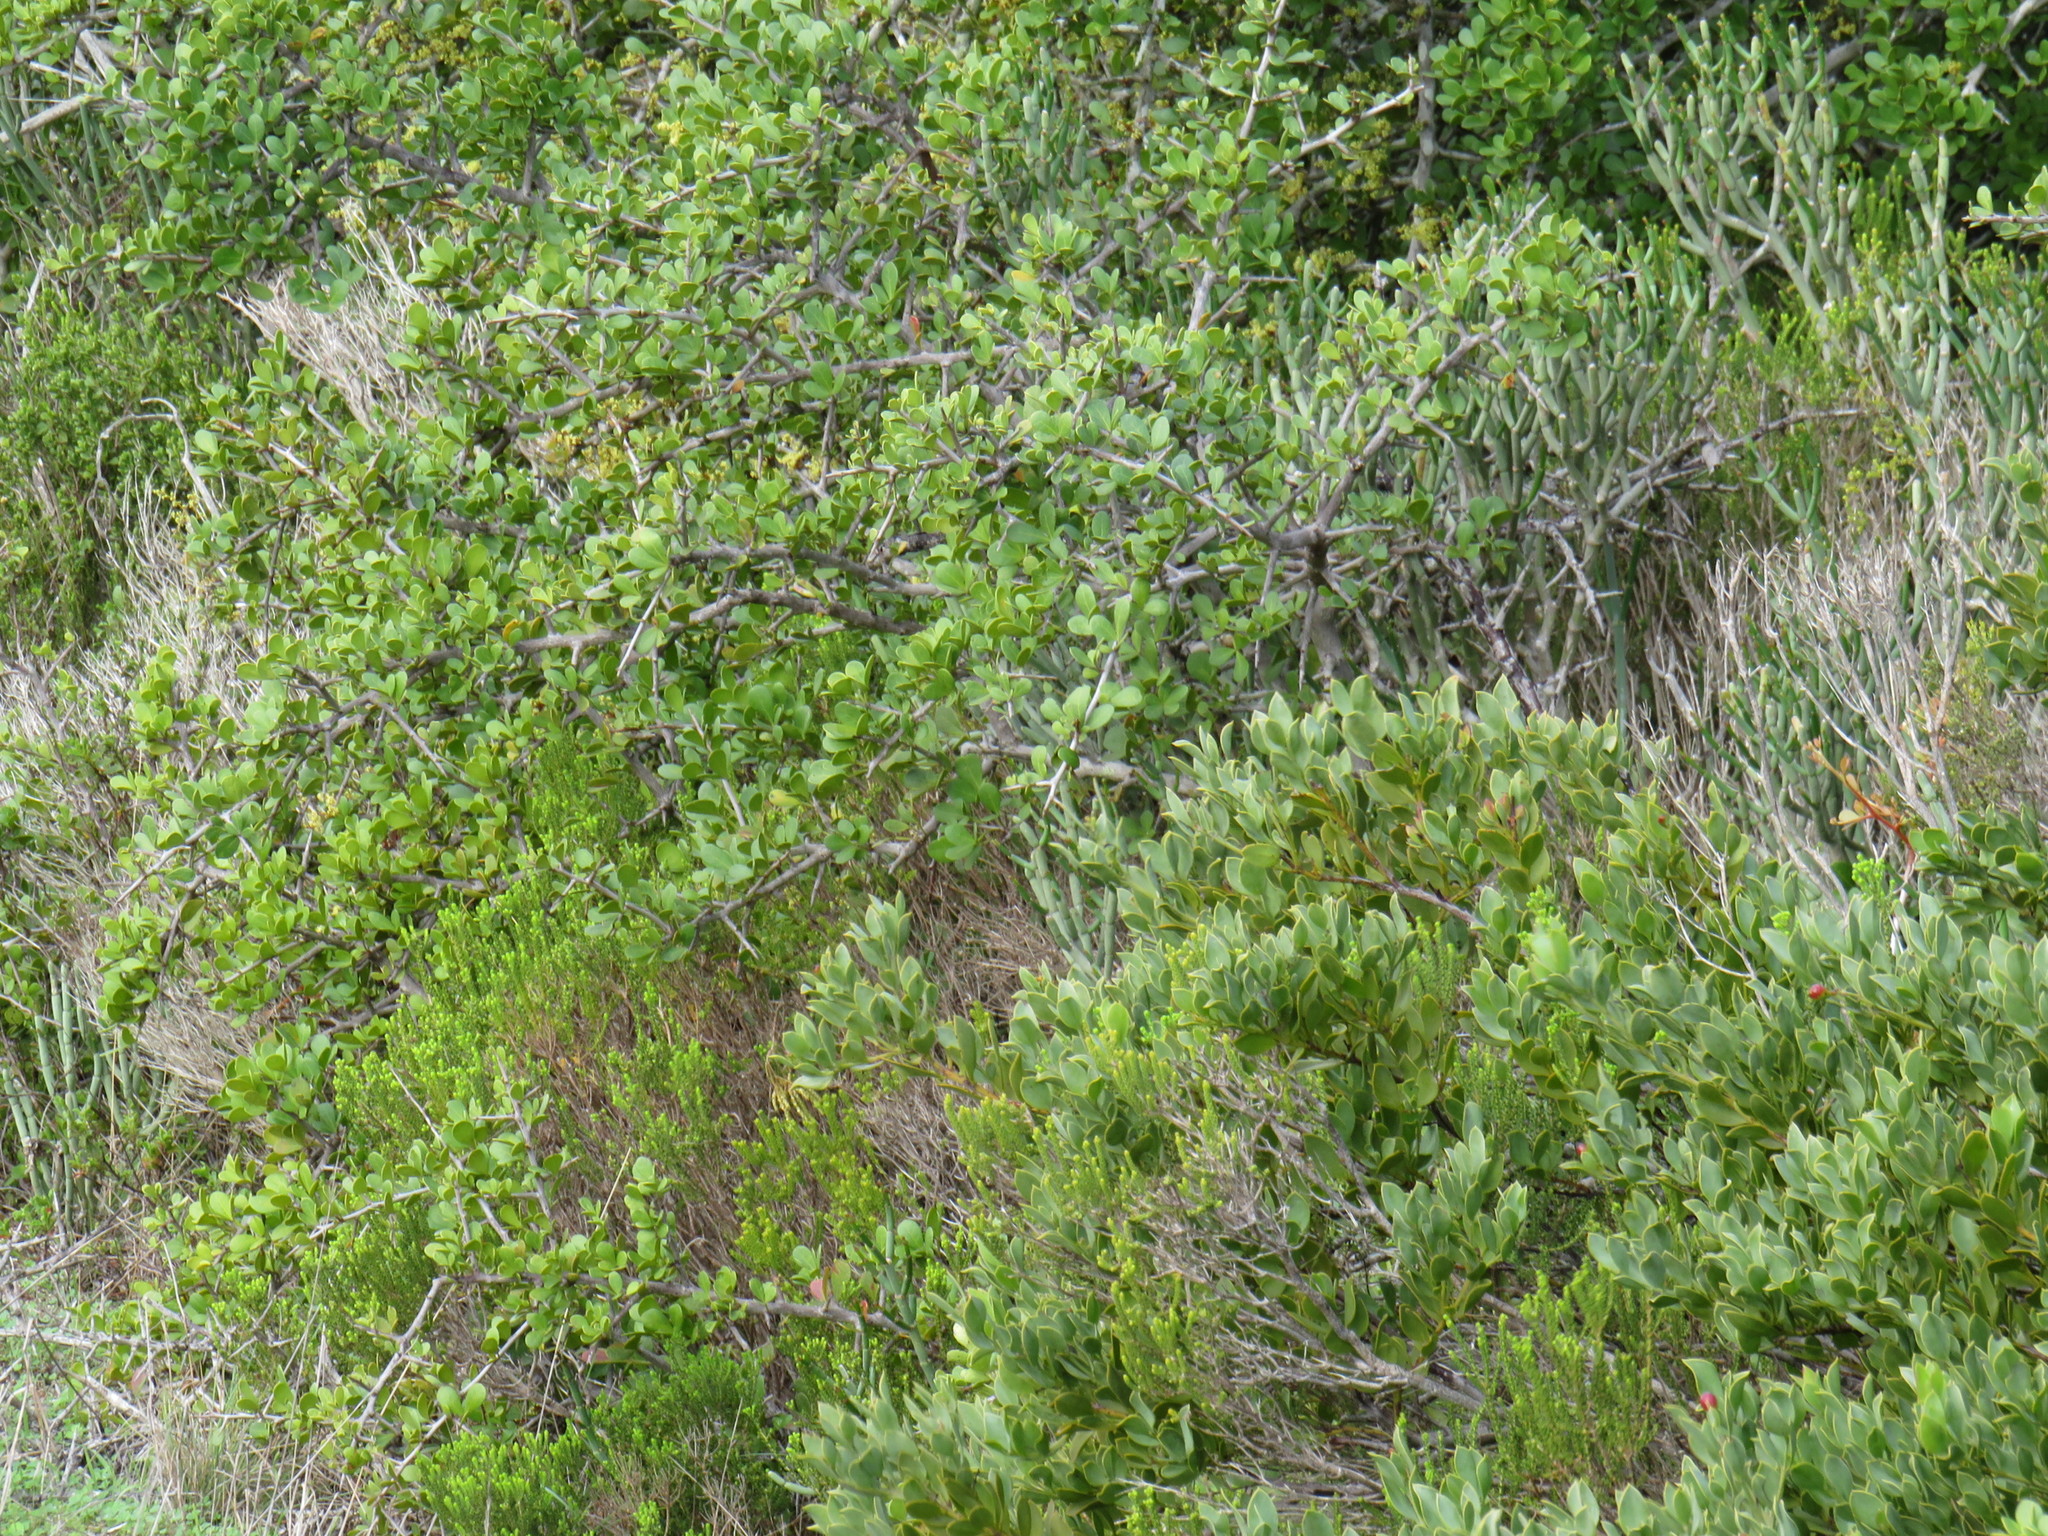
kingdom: Plantae
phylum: Tracheophyta
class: Magnoliopsida
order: Santalales
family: Santalaceae
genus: Osyris
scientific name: Osyris compressa
